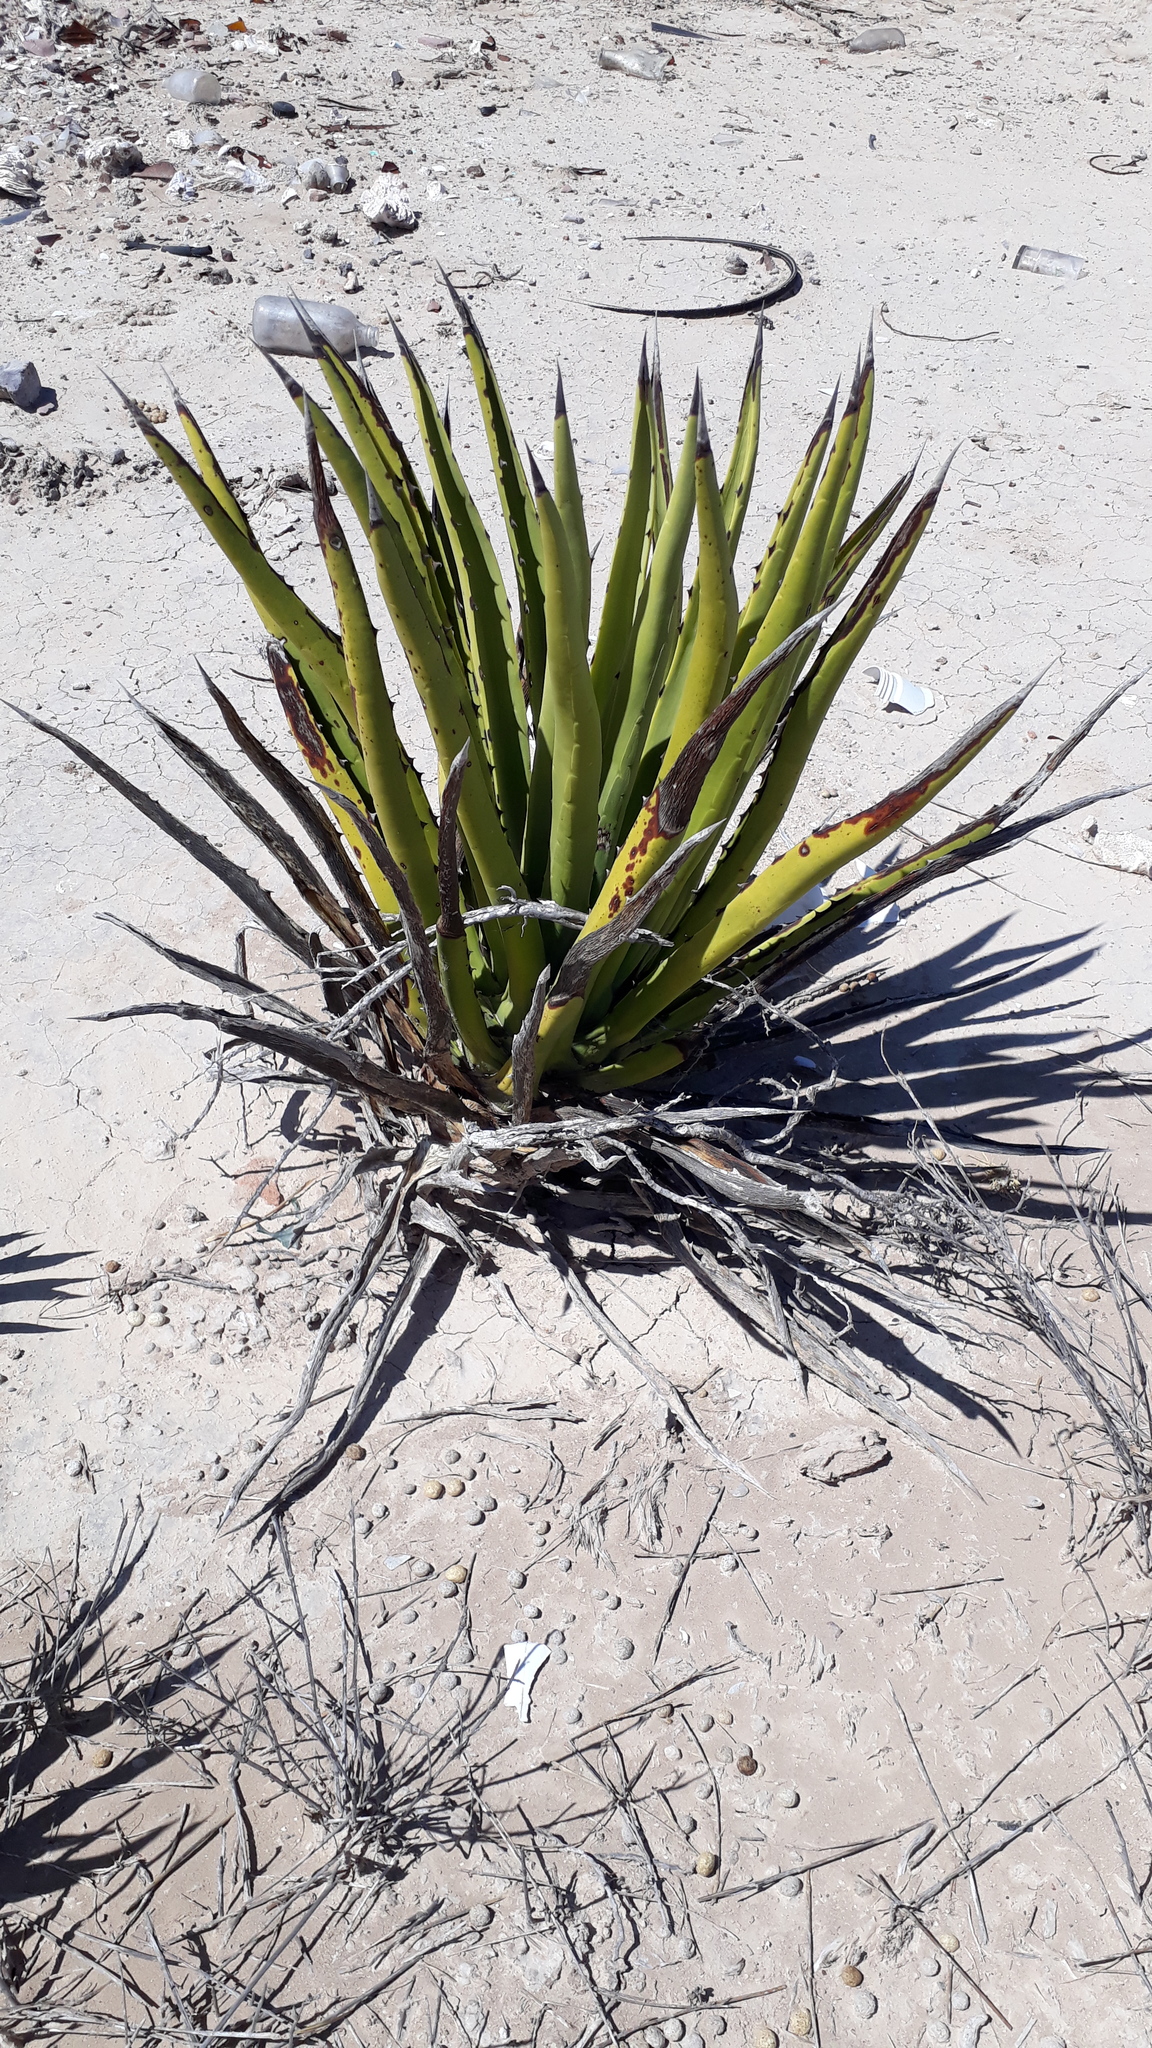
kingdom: Plantae
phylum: Tracheophyta
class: Liliopsida
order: Asparagales
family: Asparagaceae
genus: Agave
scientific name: Agave datylio
